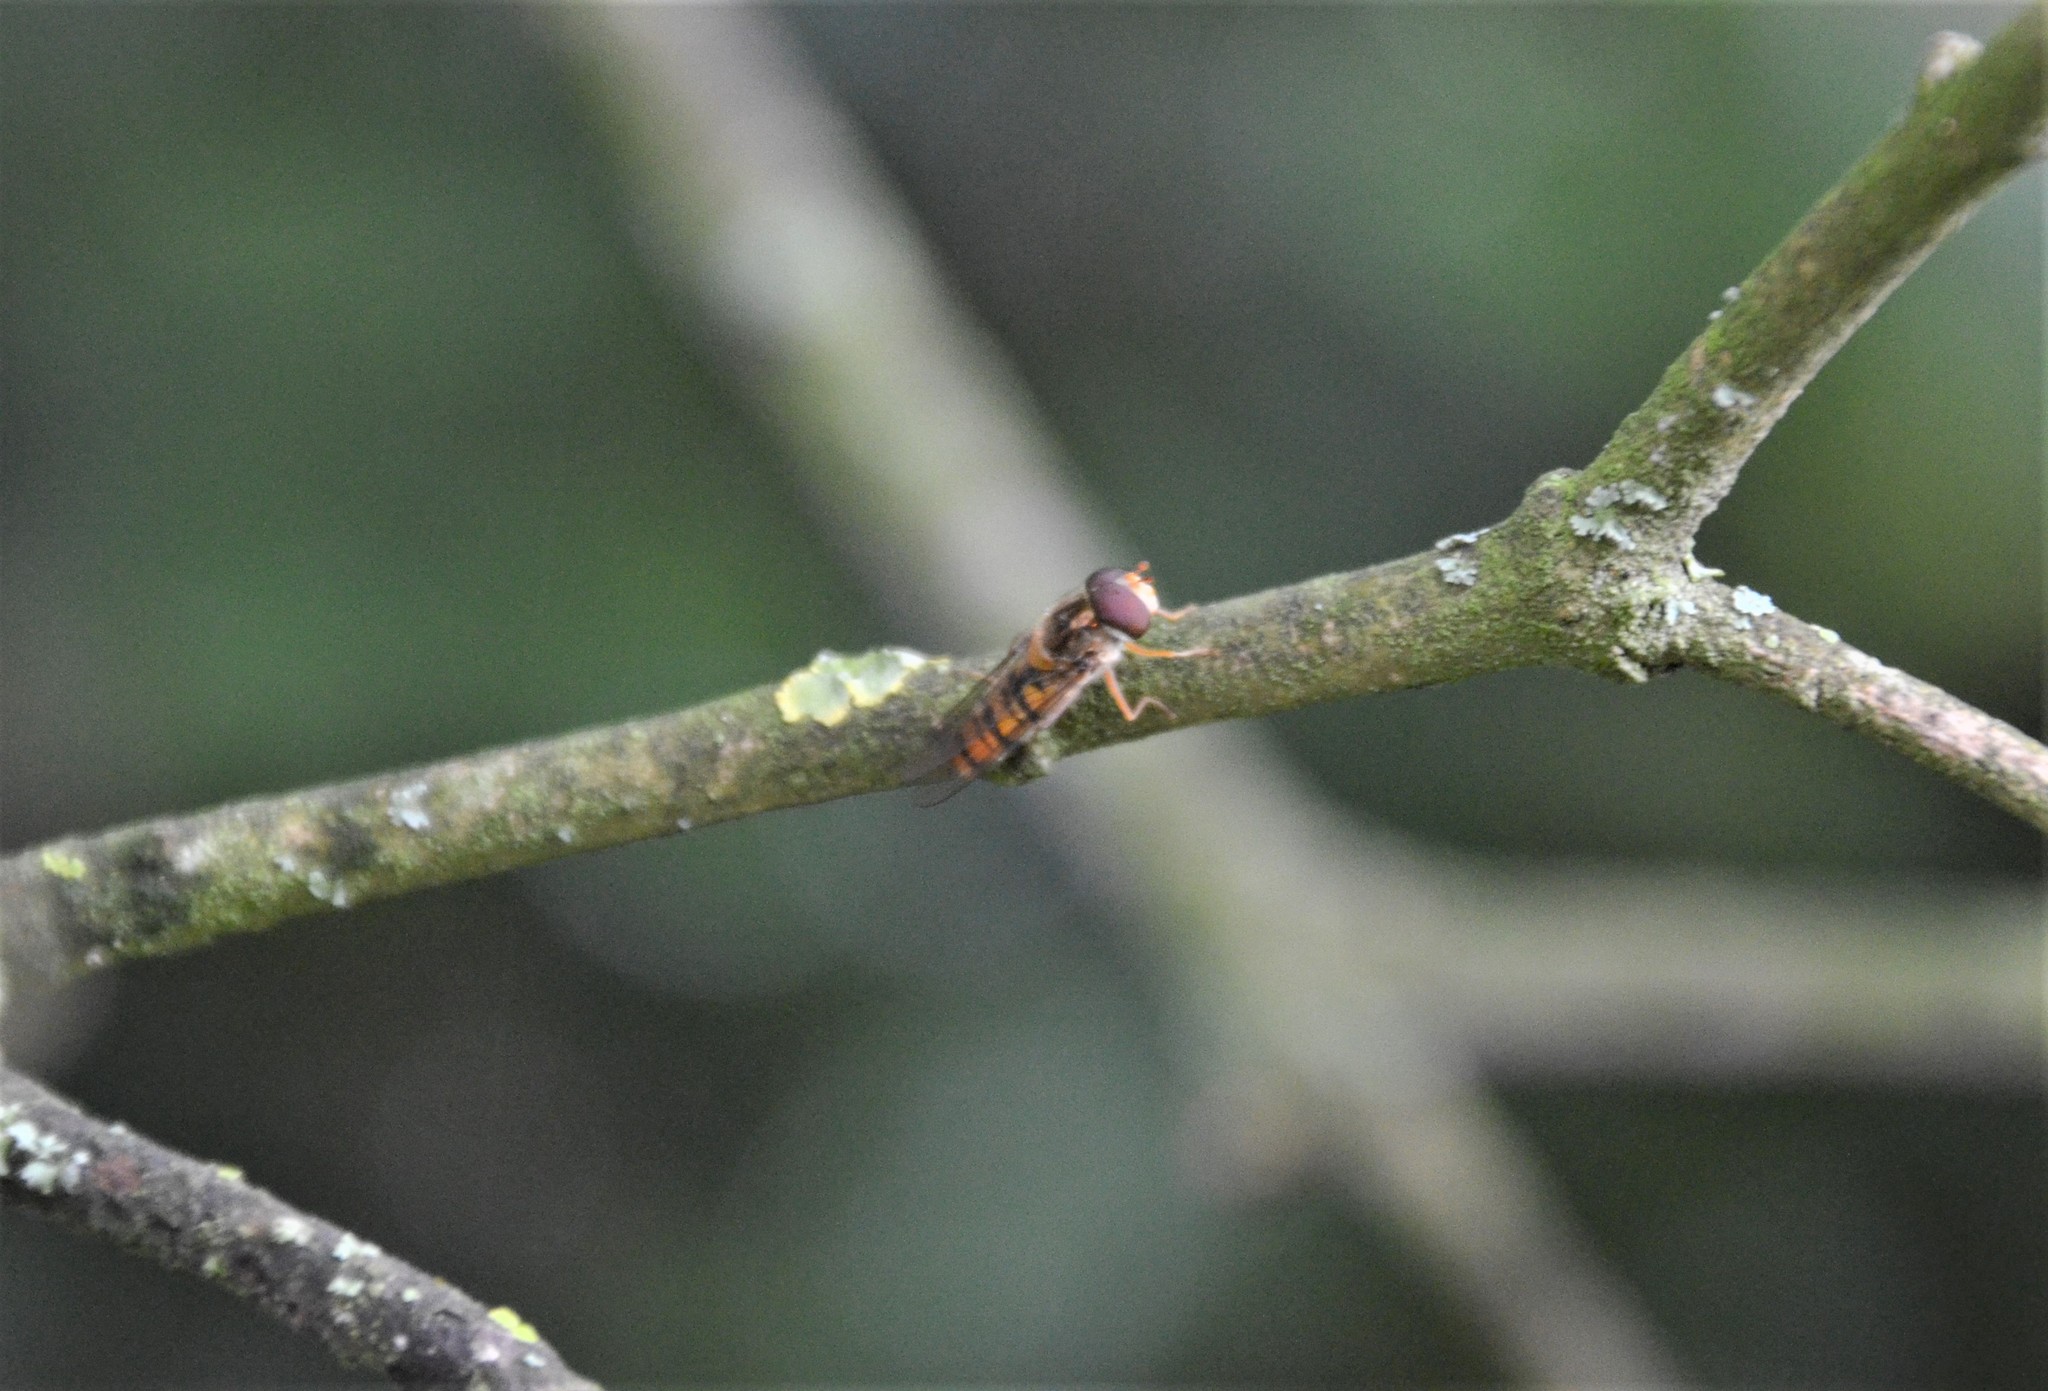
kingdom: Animalia
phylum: Arthropoda
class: Insecta
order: Diptera
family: Syrphidae
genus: Episyrphus
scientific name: Episyrphus balteatus
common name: Marmalade hoverfly
